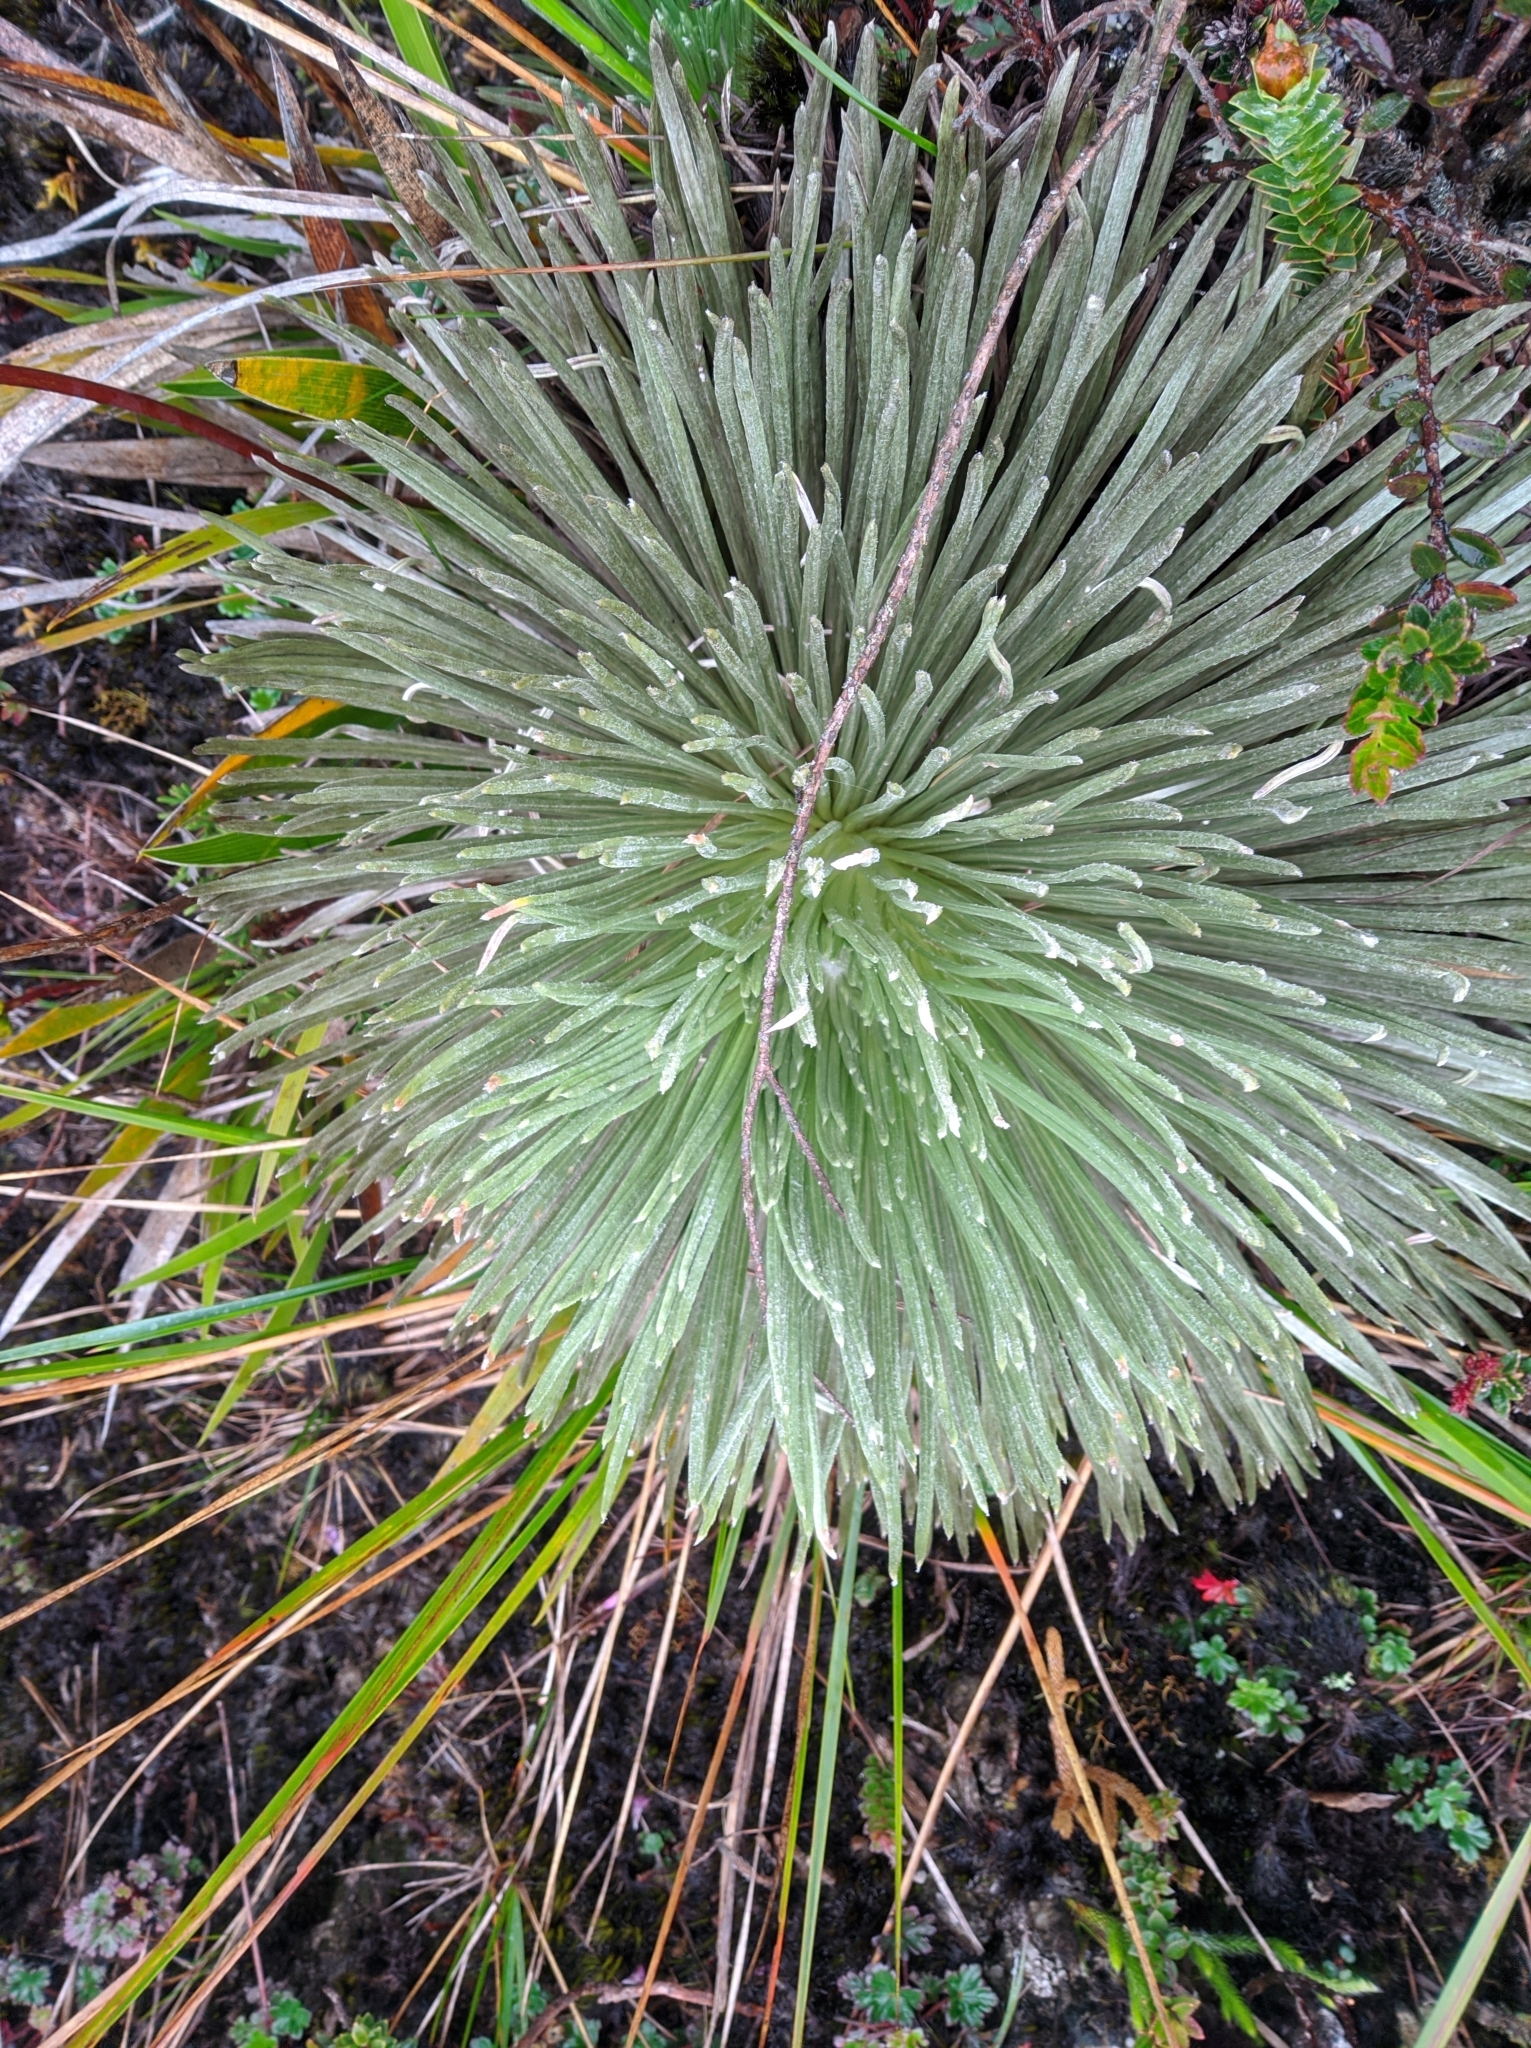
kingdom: Plantae
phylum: Tracheophyta
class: Magnoliopsida
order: Asterales
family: Asteraceae
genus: Espeletia
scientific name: Espeletia jabonensis
